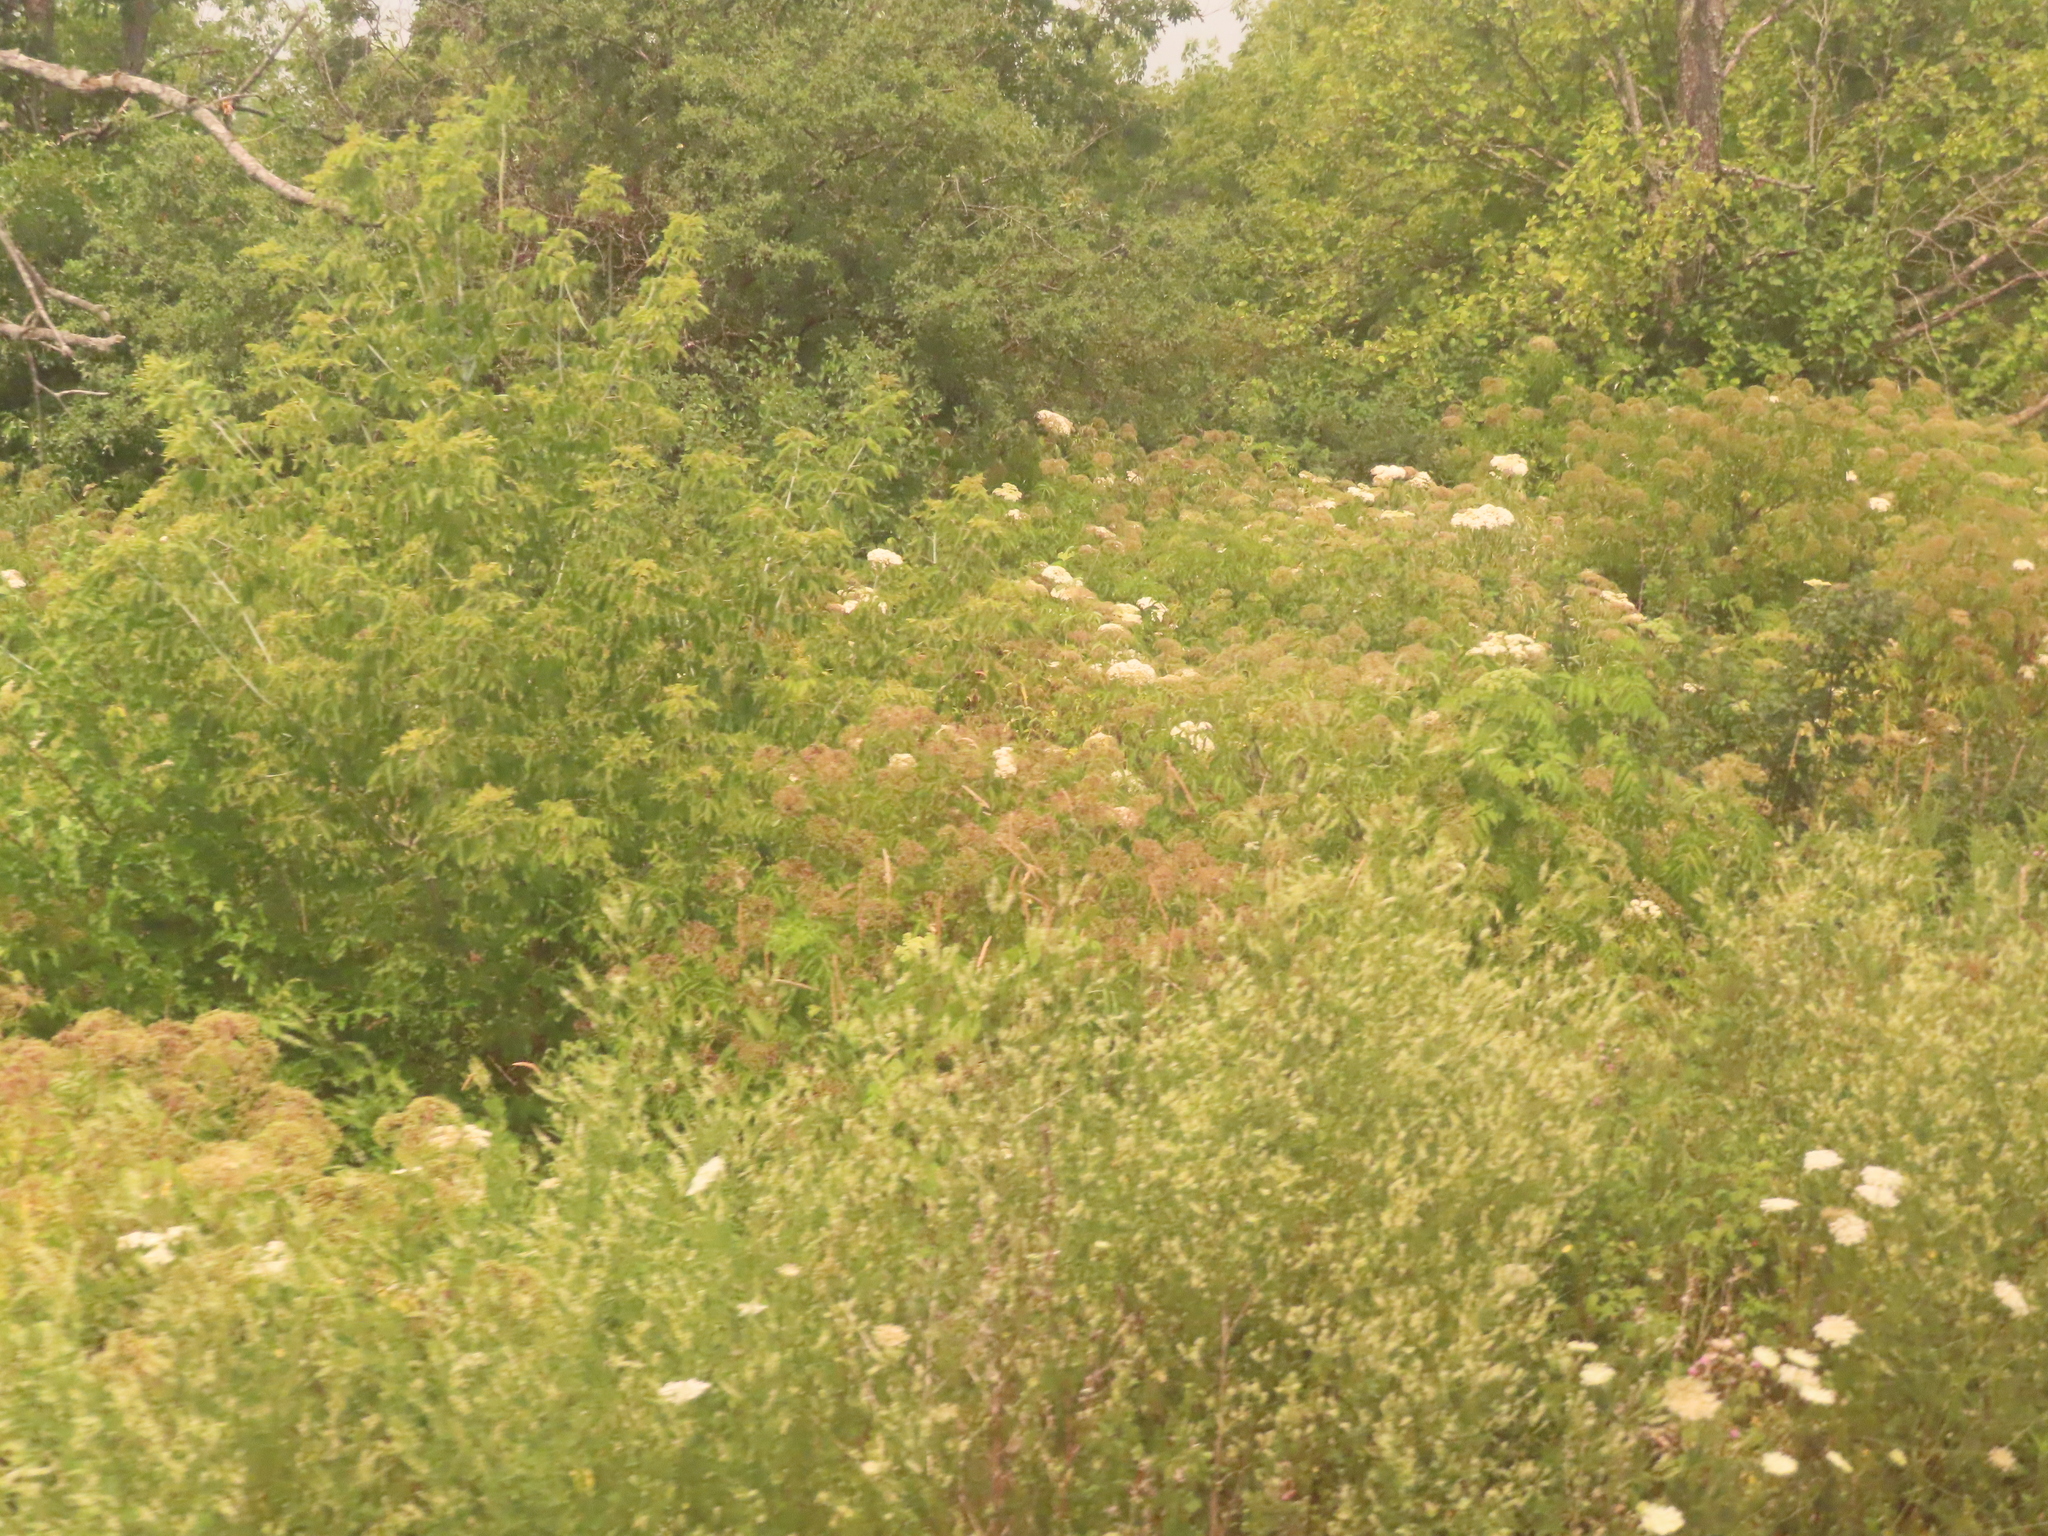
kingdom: Plantae
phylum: Tracheophyta
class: Magnoliopsida
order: Sapindales
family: Sapindaceae
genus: Acer
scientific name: Acer negundo
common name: Ashleaf maple
